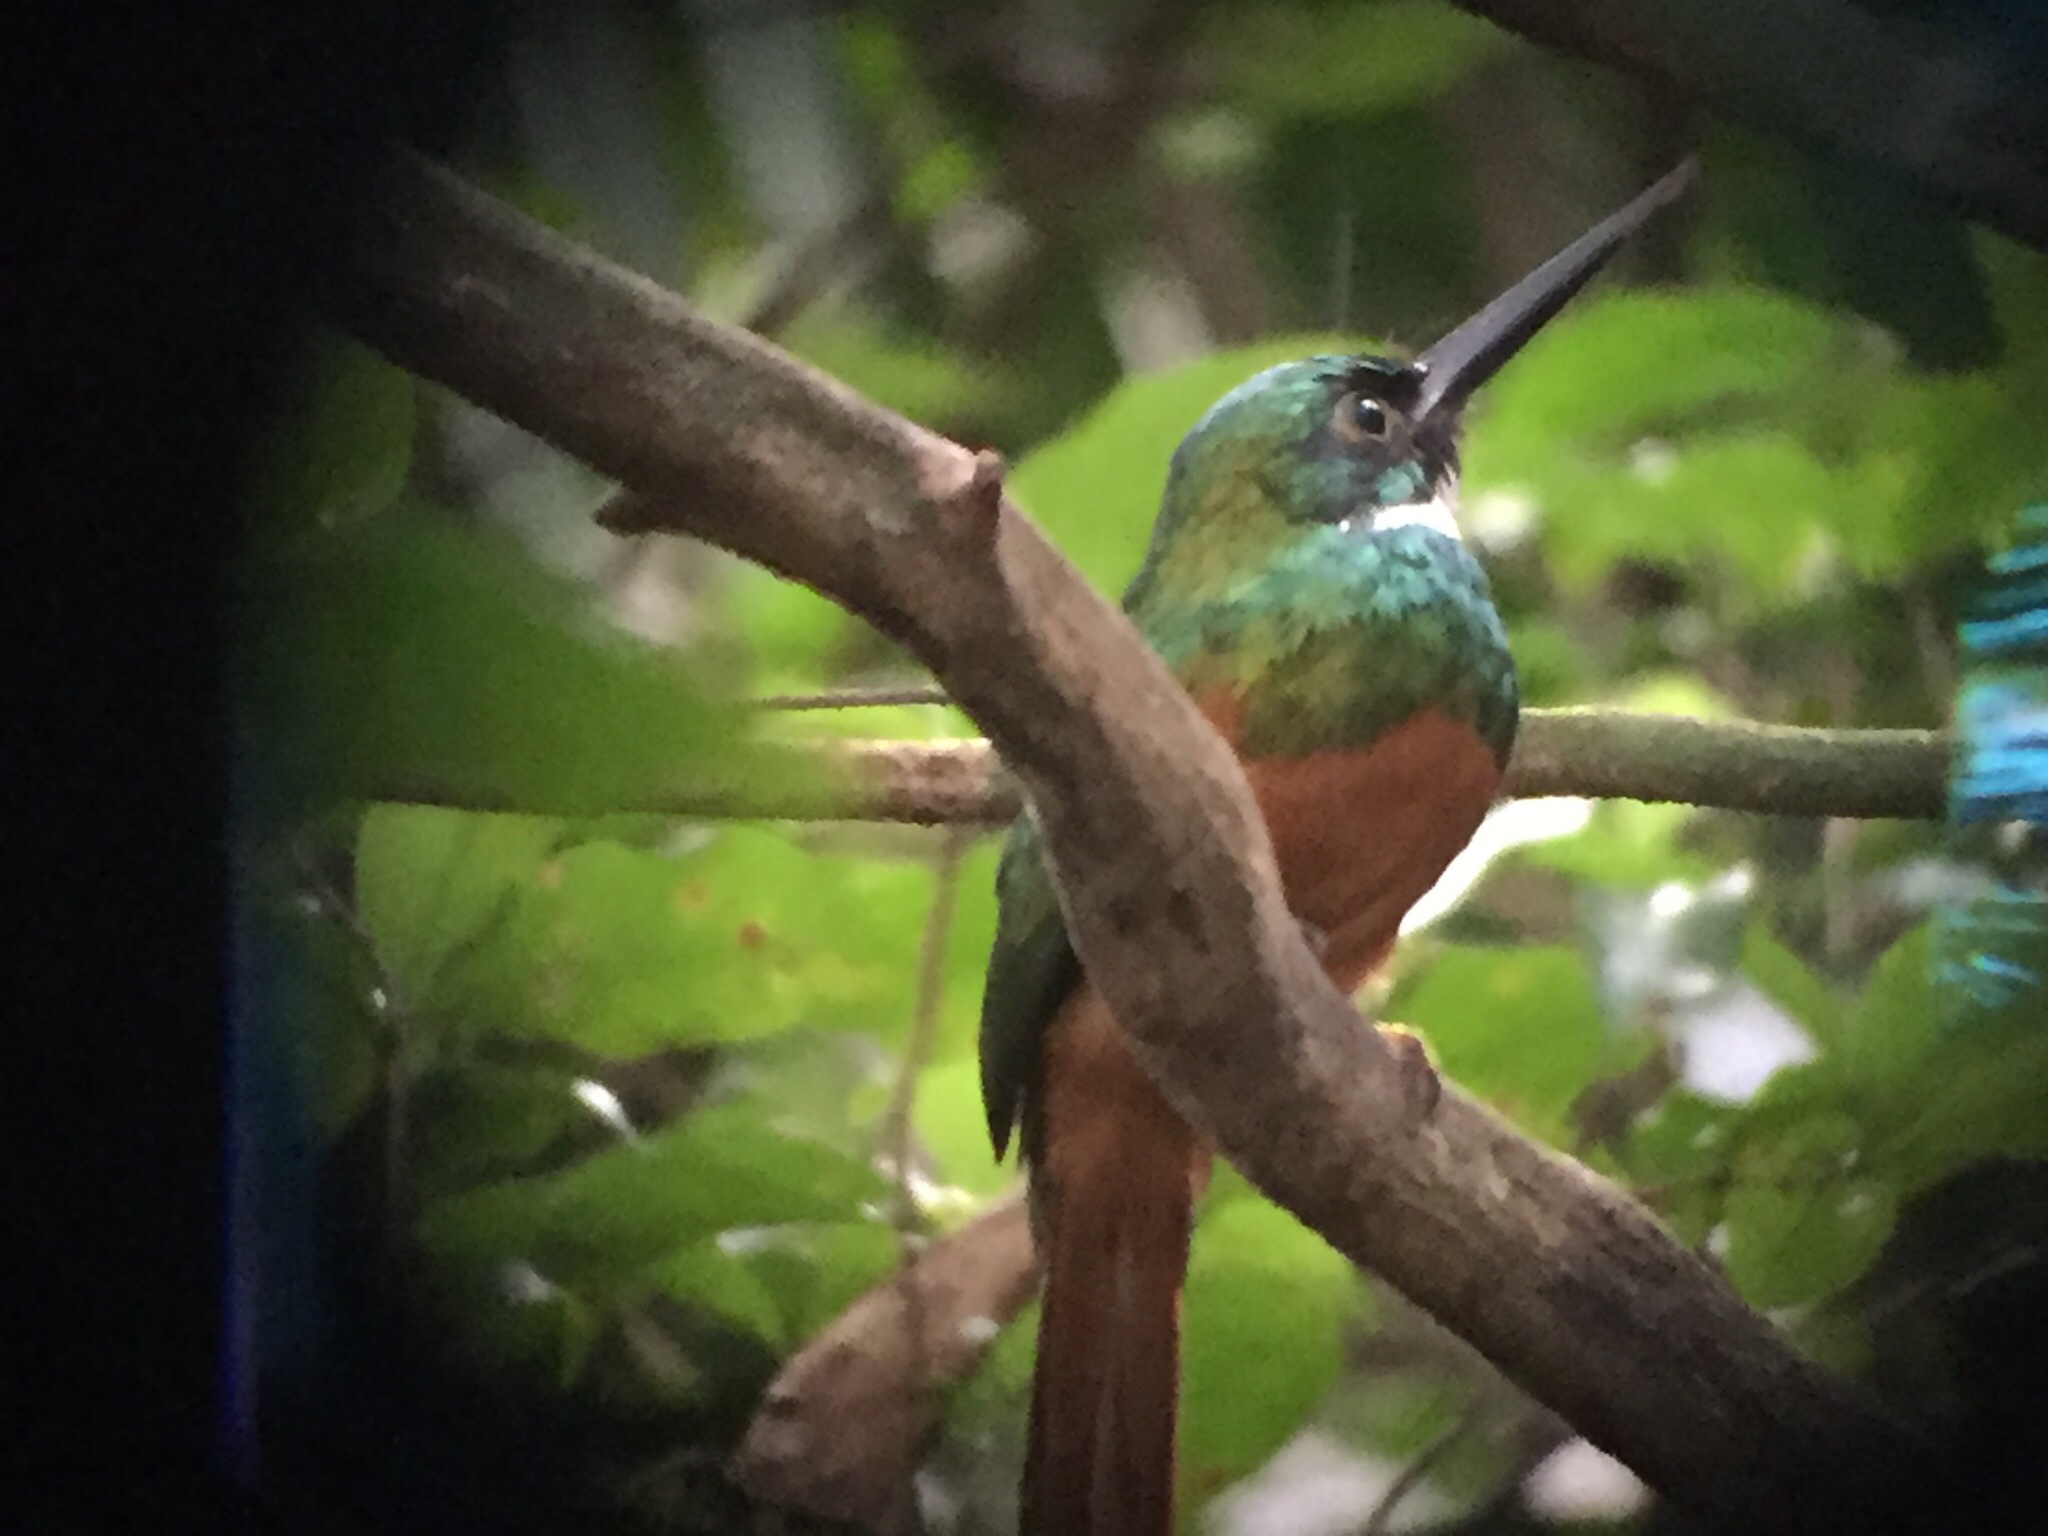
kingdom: Animalia
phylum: Chordata
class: Aves
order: Piciformes
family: Galbulidae
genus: Galbula
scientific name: Galbula ruficauda
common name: Rufous-tailed jacamar
